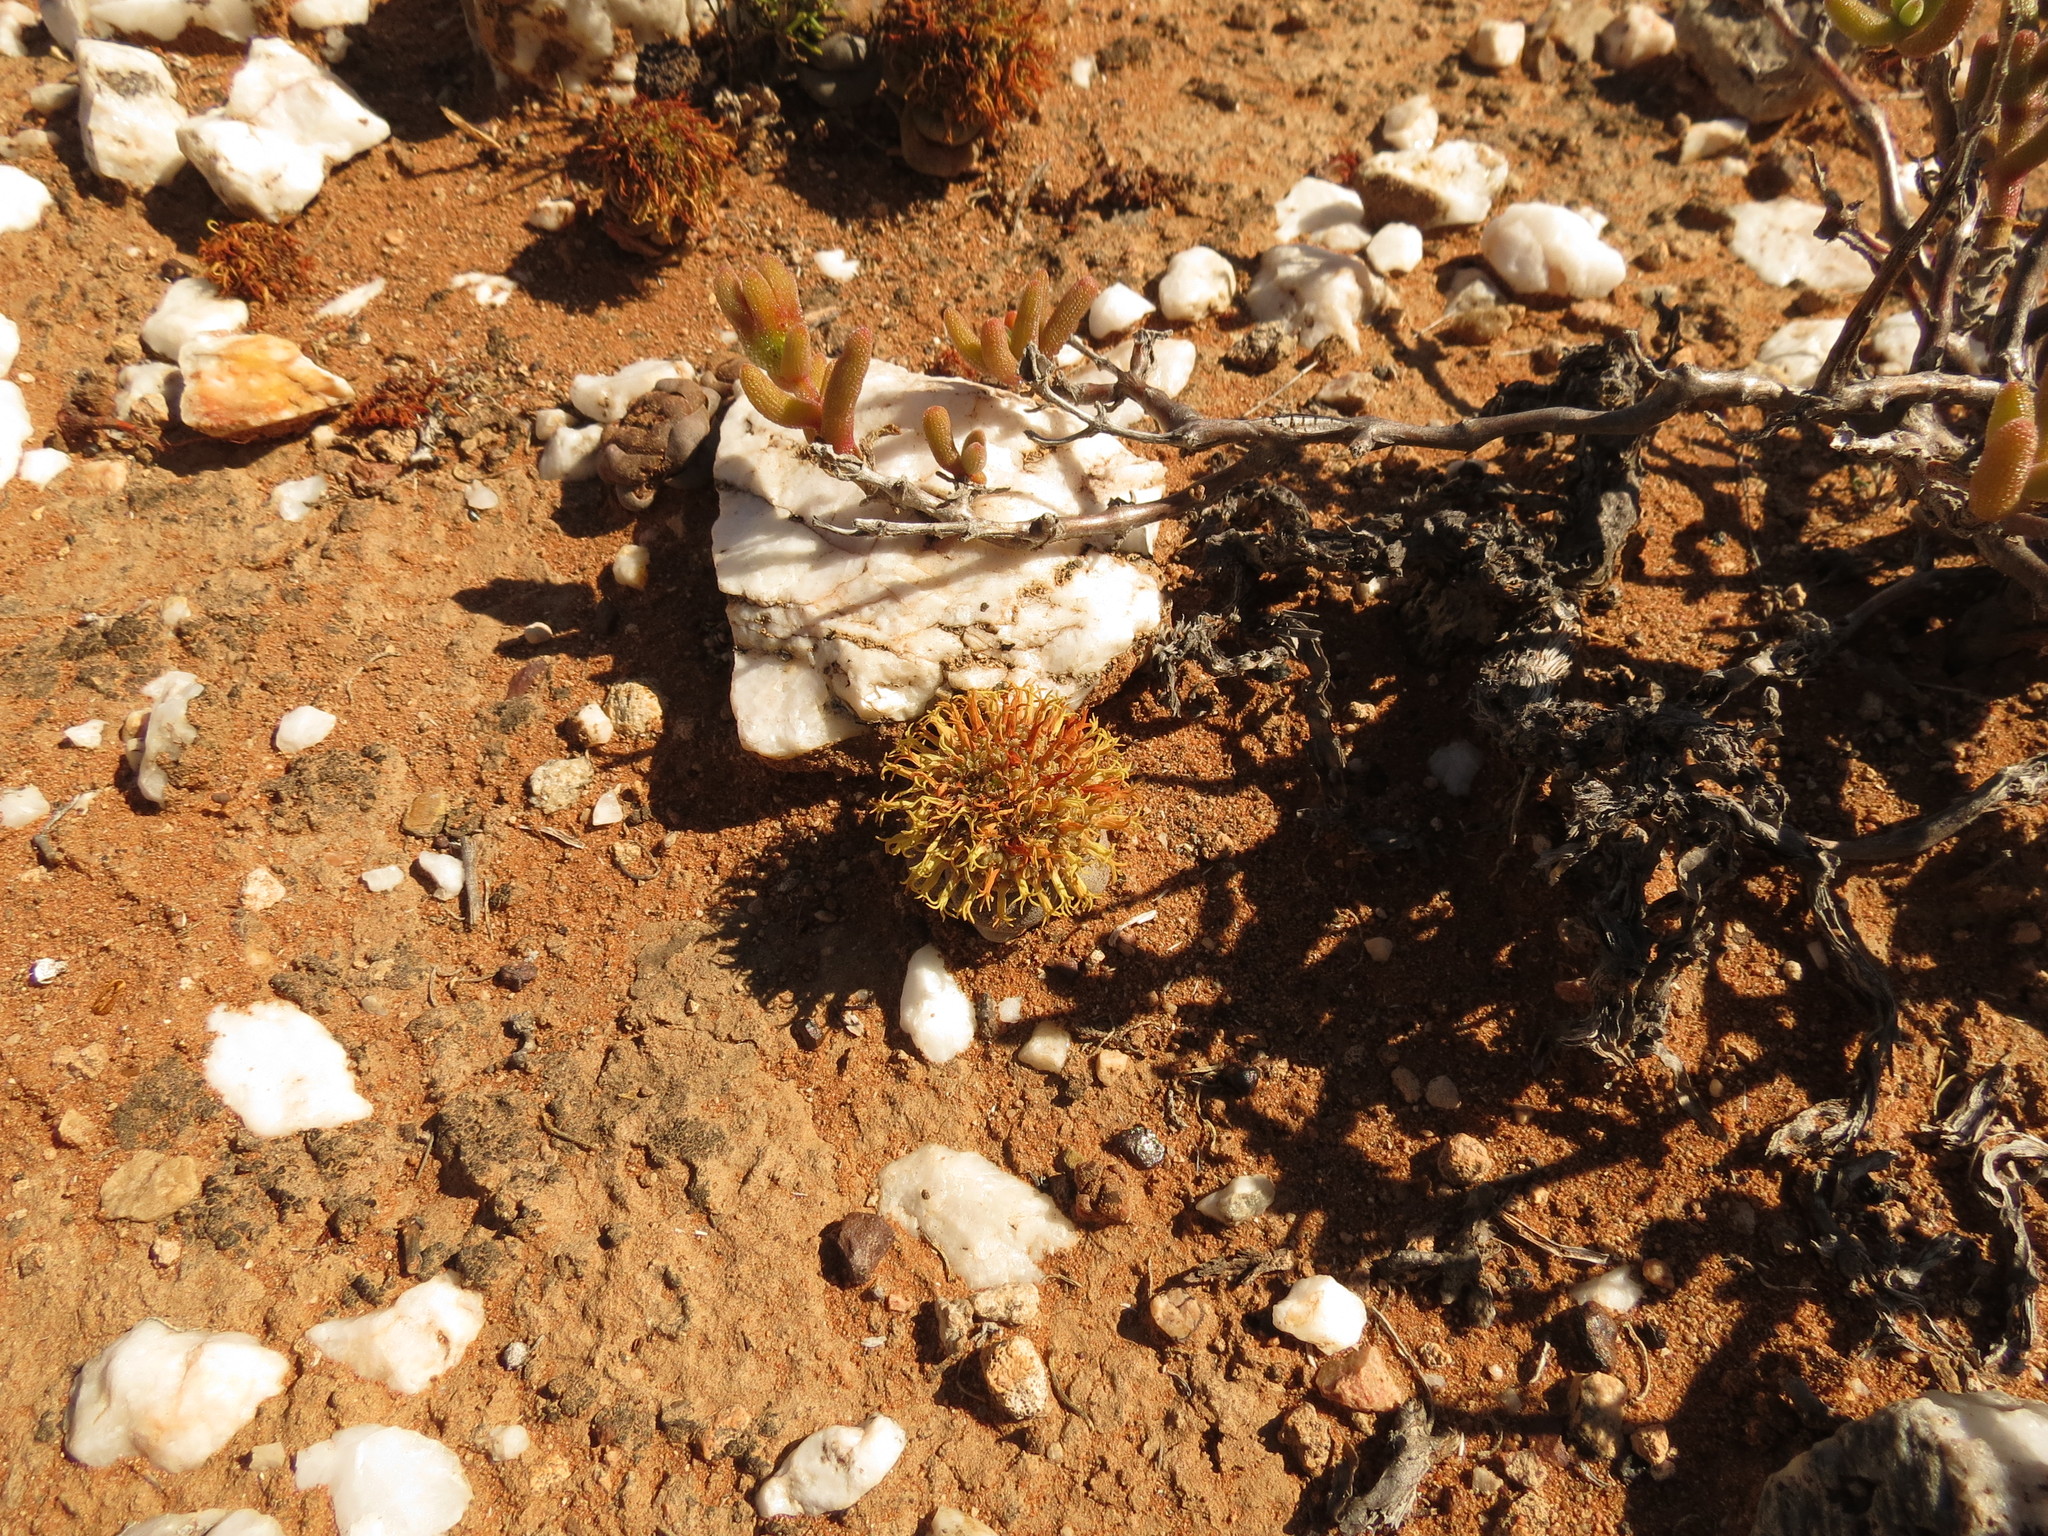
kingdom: Plantae
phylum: Tracheophyta
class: Magnoliopsida
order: Saxifragales
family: Crassulaceae
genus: Crassula
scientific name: Crassula columnaris
